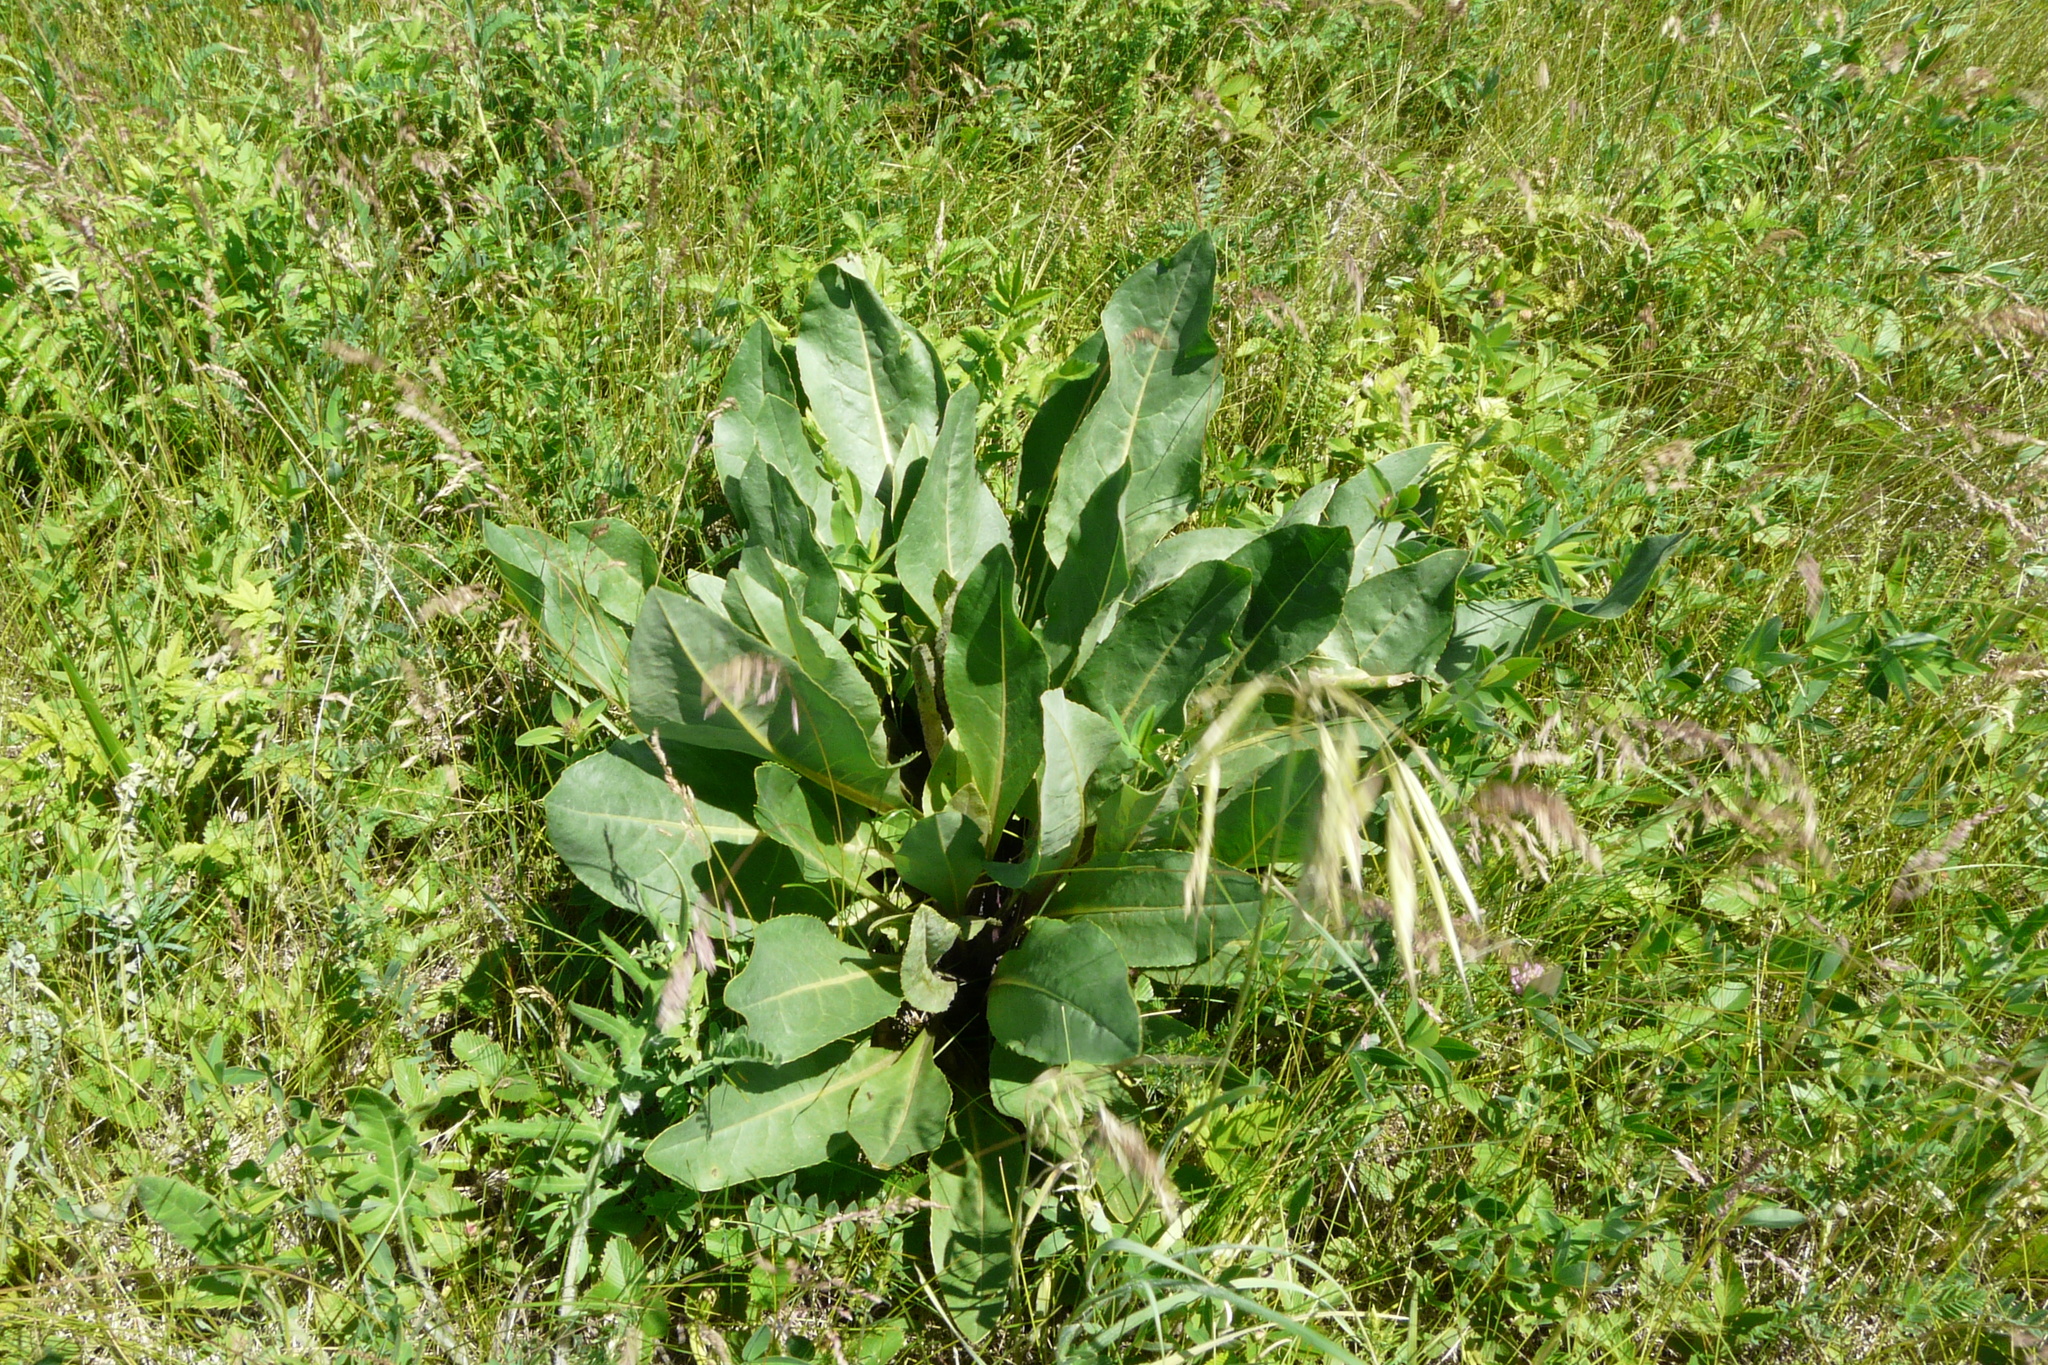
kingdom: Plantae
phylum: Tracheophyta
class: Magnoliopsida
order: Asterales
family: Asteraceae
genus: Senecio
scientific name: Senecio doria
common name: Golden ragwort
